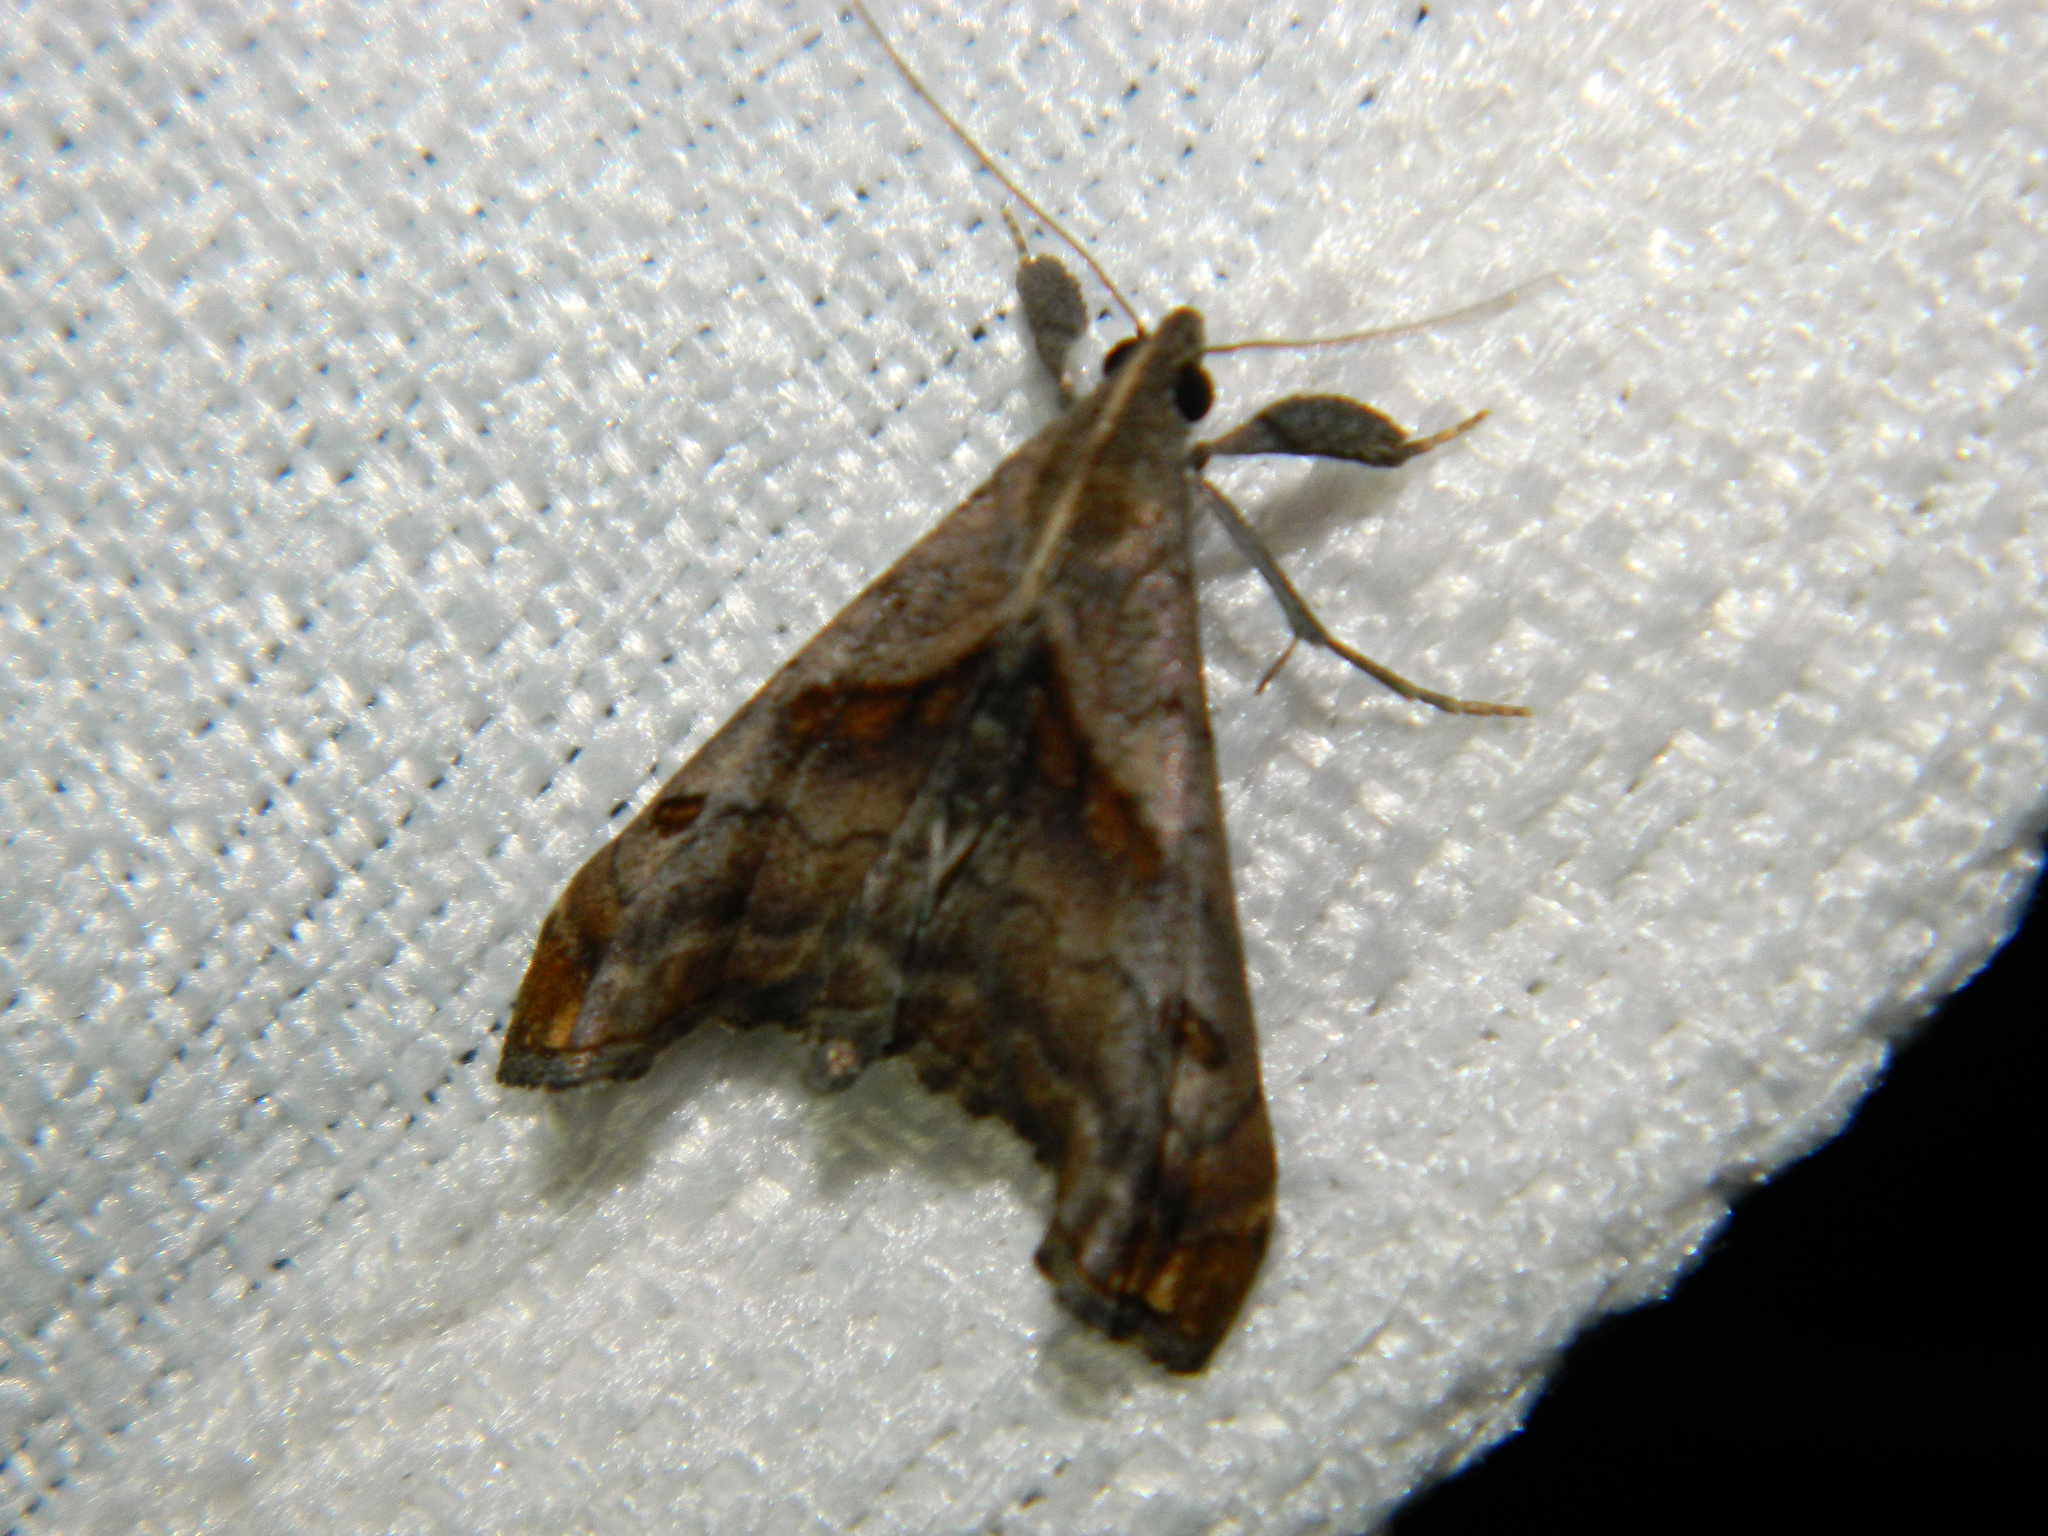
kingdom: Animalia
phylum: Arthropoda
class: Insecta
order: Lepidoptera
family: Erebidae
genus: Palthis
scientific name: Palthis angulalis
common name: Dark-spotted palthis moth
